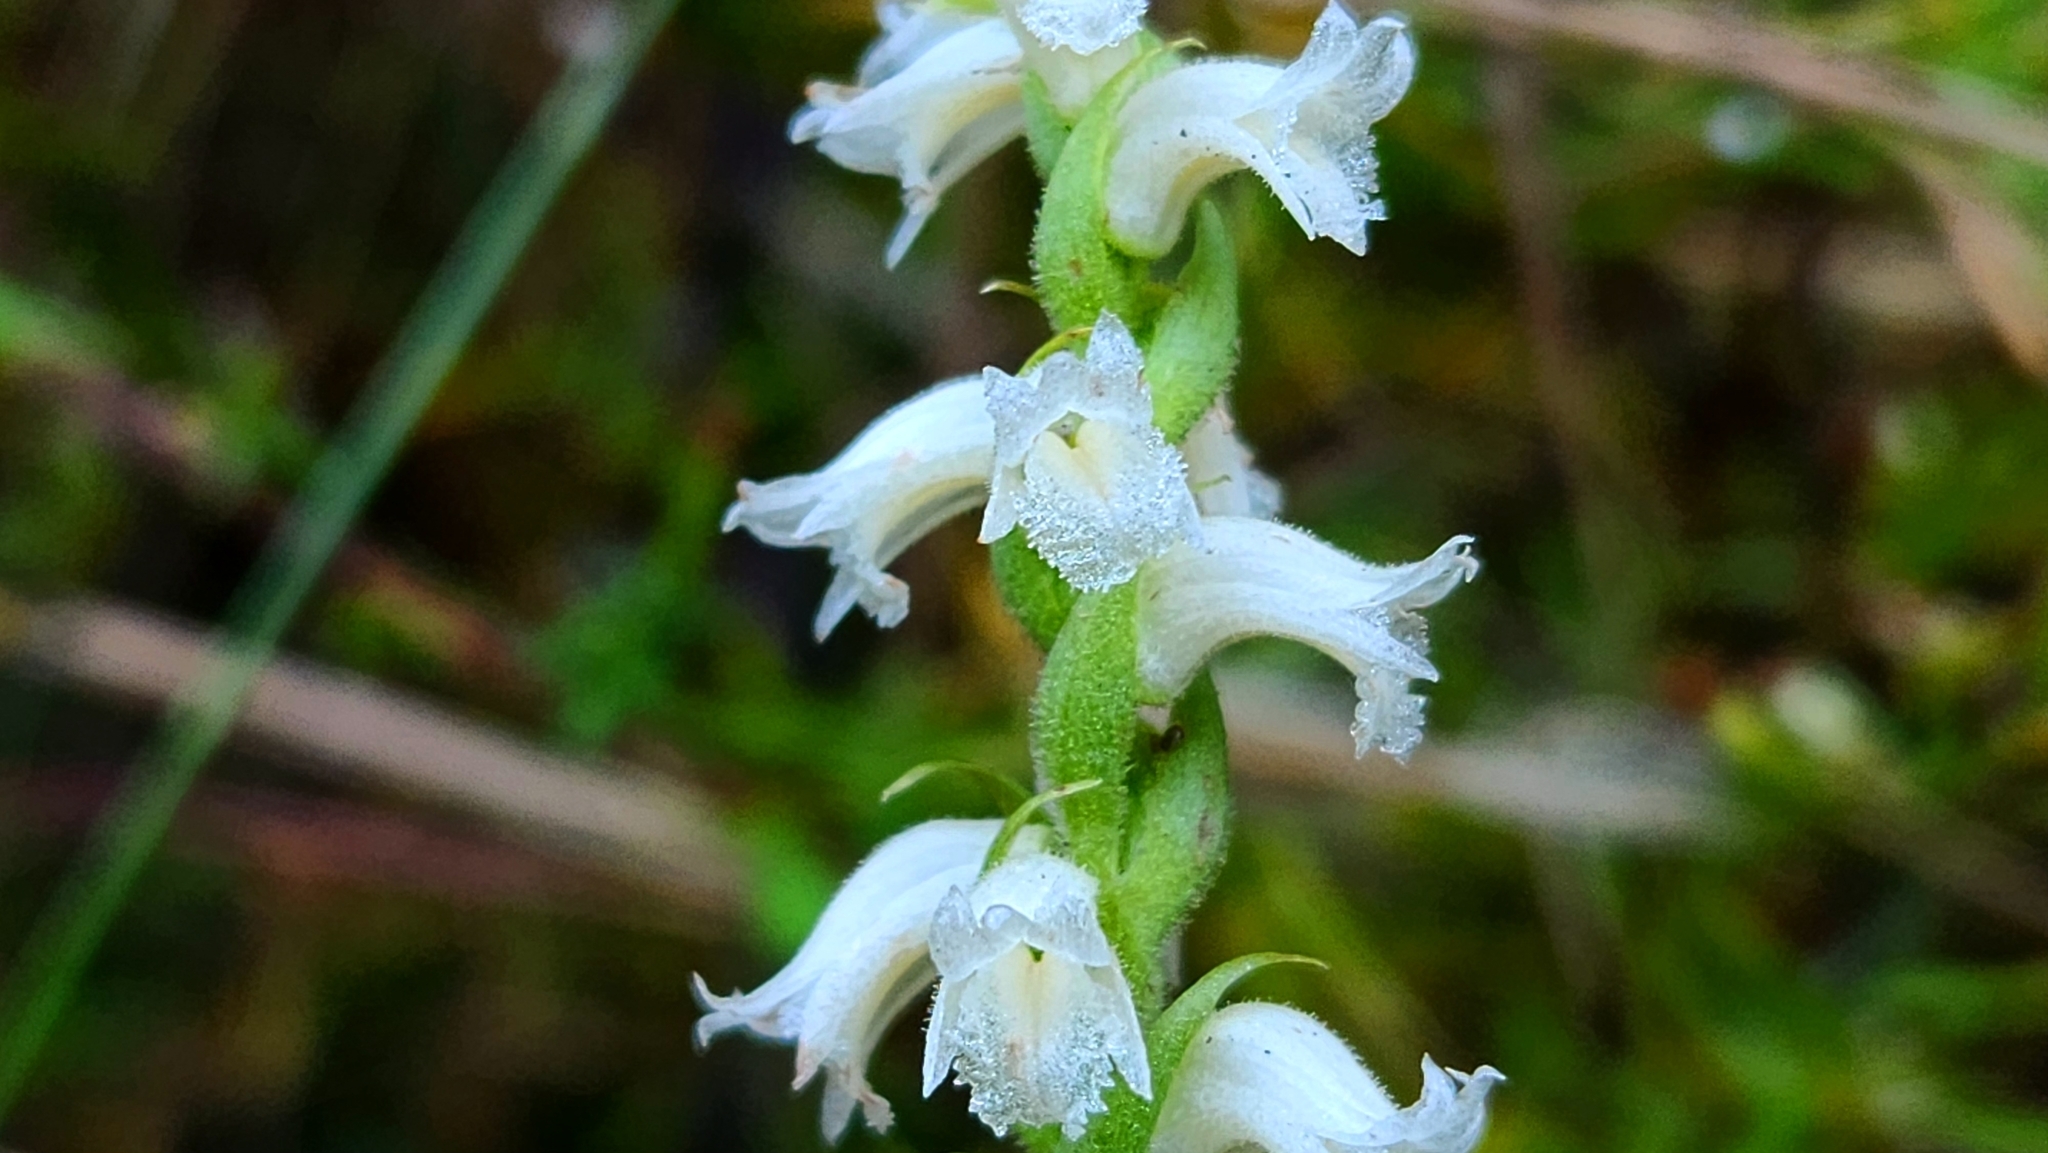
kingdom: Plantae
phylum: Tracheophyta
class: Liliopsida
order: Asparagales
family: Orchidaceae
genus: Spiranthes
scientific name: Spiranthes ochroleuca
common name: Yellow ladies'-tresses
